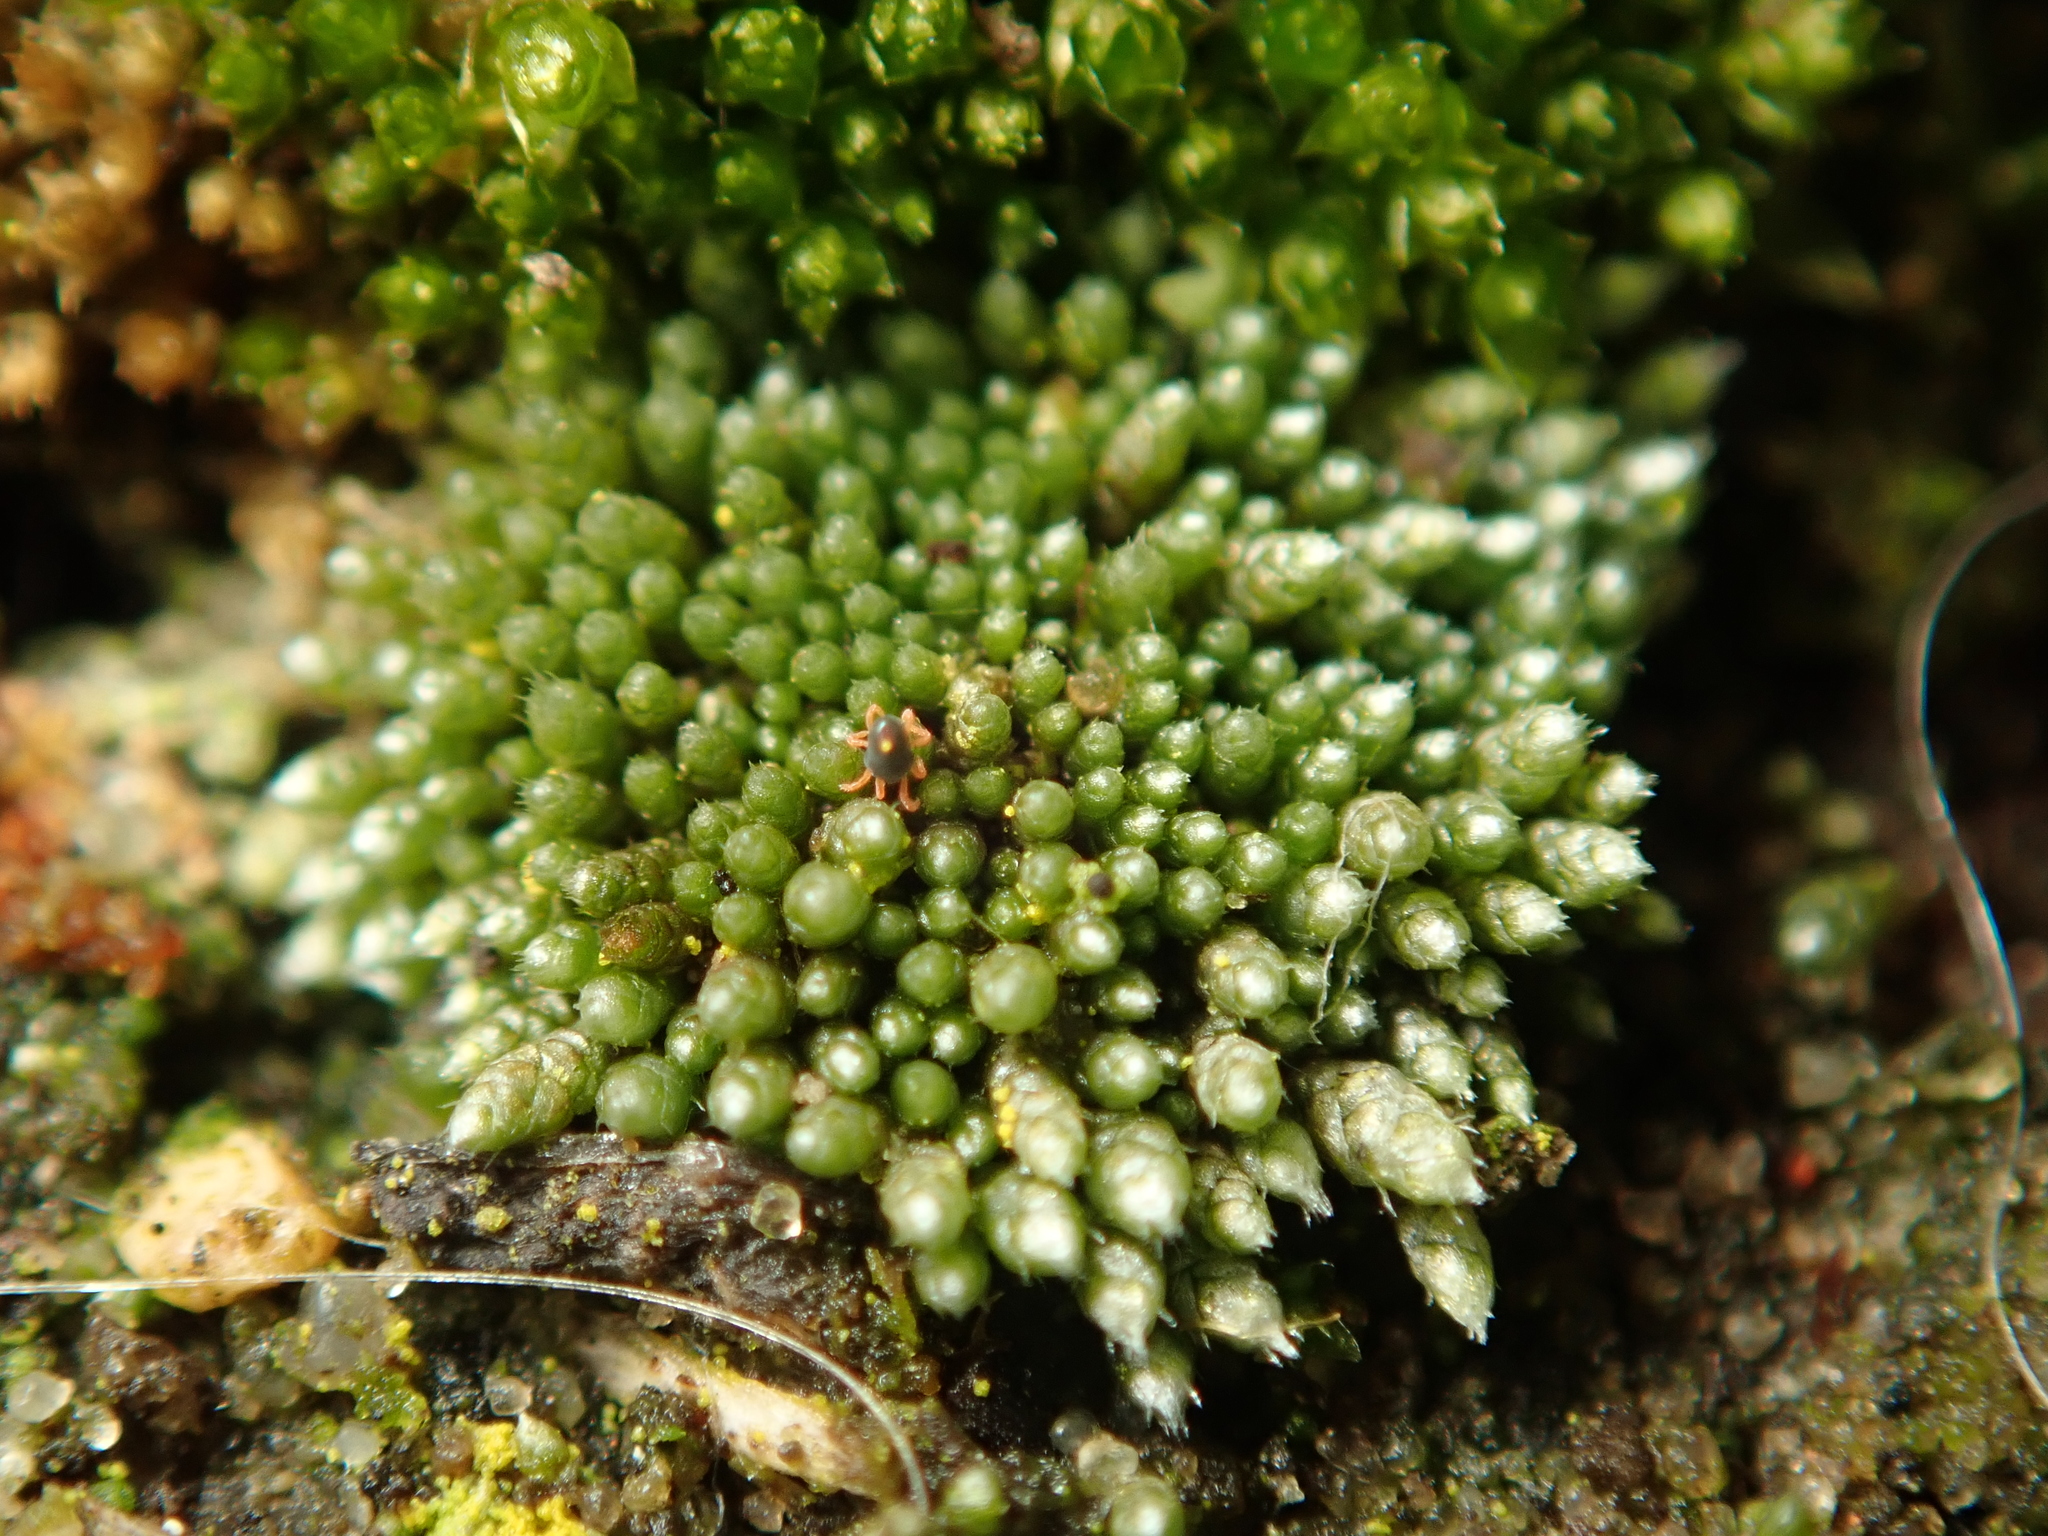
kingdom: Plantae
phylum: Bryophyta
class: Bryopsida
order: Bryales
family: Bryaceae
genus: Bryum
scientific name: Bryum argenteum
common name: Silver-moss
